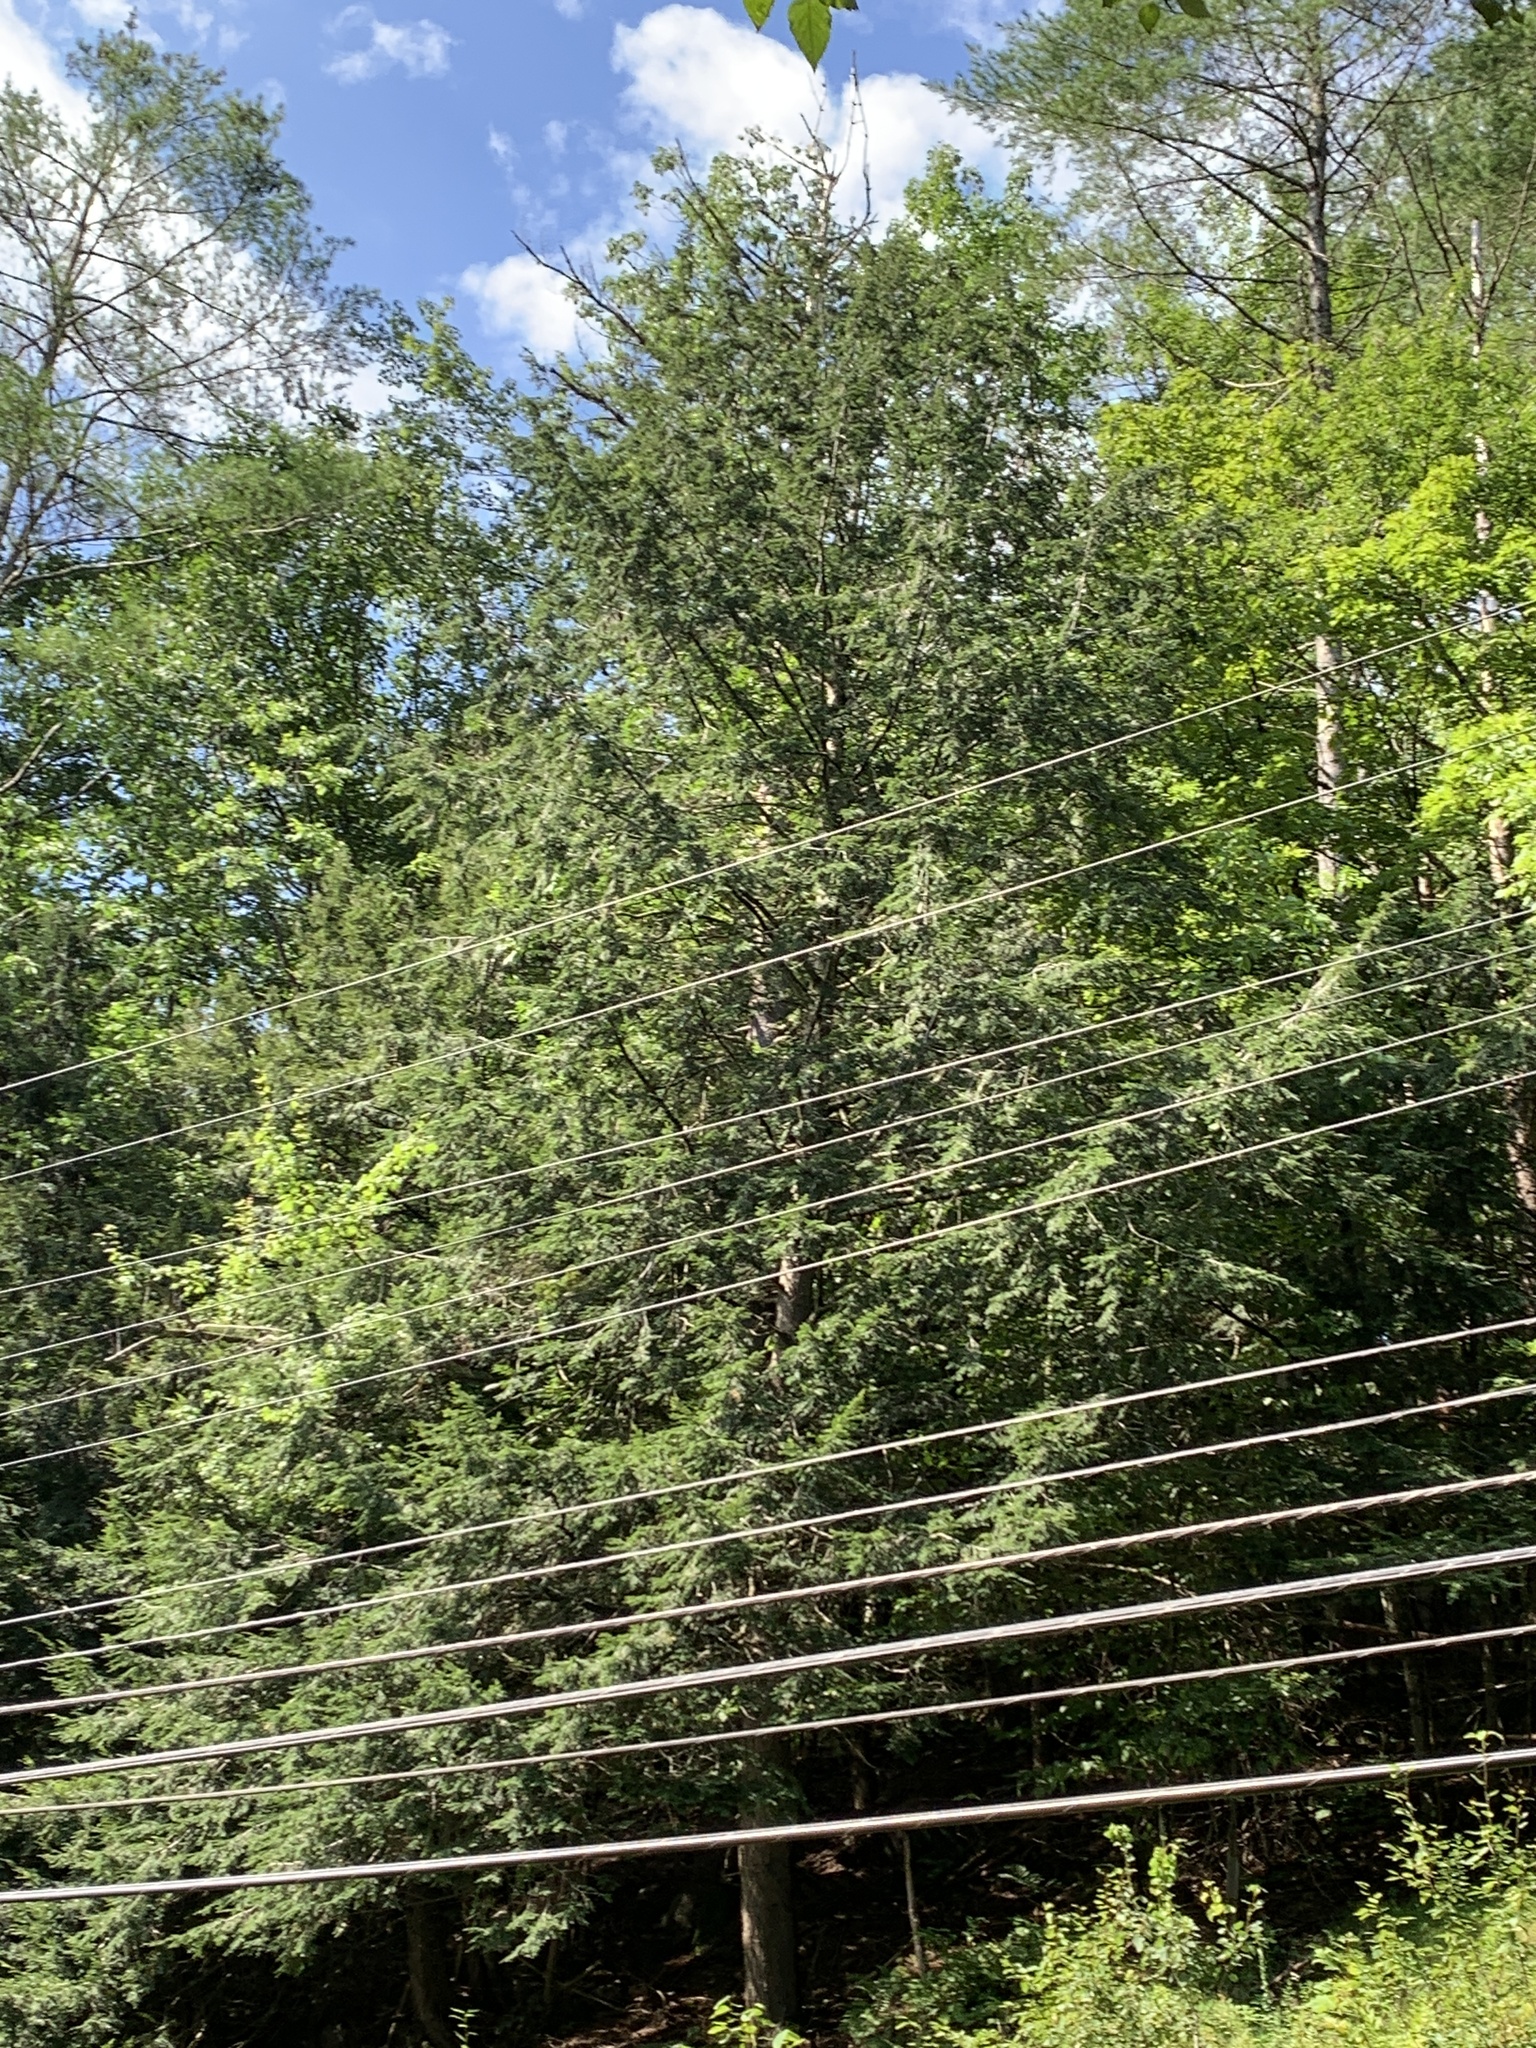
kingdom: Plantae
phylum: Tracheophyta
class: Pinopsida
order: Pinales
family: Pinaceae
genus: Tsuga
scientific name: Tsuga canadensis
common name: Eastern hemlock
